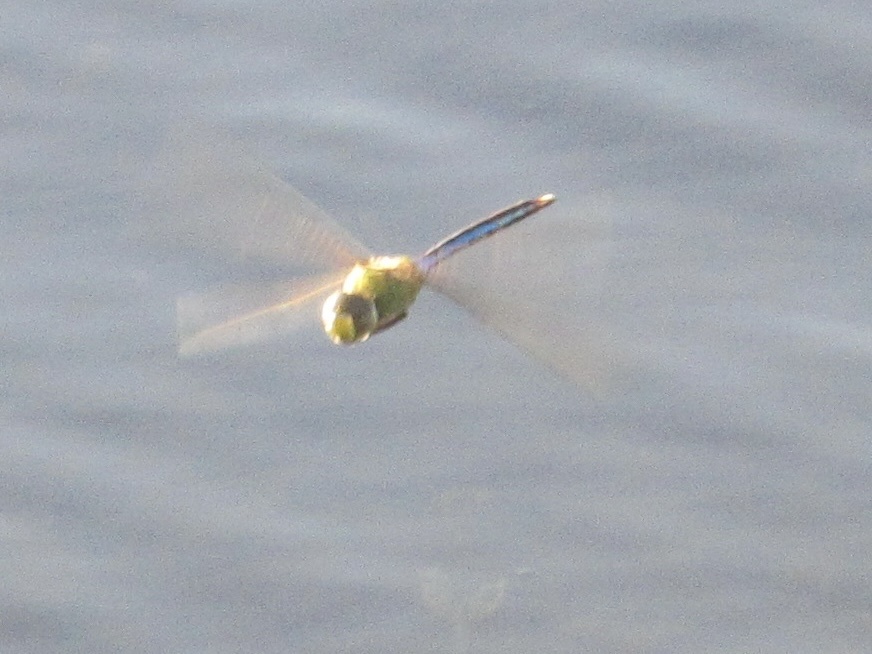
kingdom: Animalia
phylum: Arthropoda
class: Insecta
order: Odonata
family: Aeshnidae
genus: Anax
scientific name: Anax junius
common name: Common green darner
